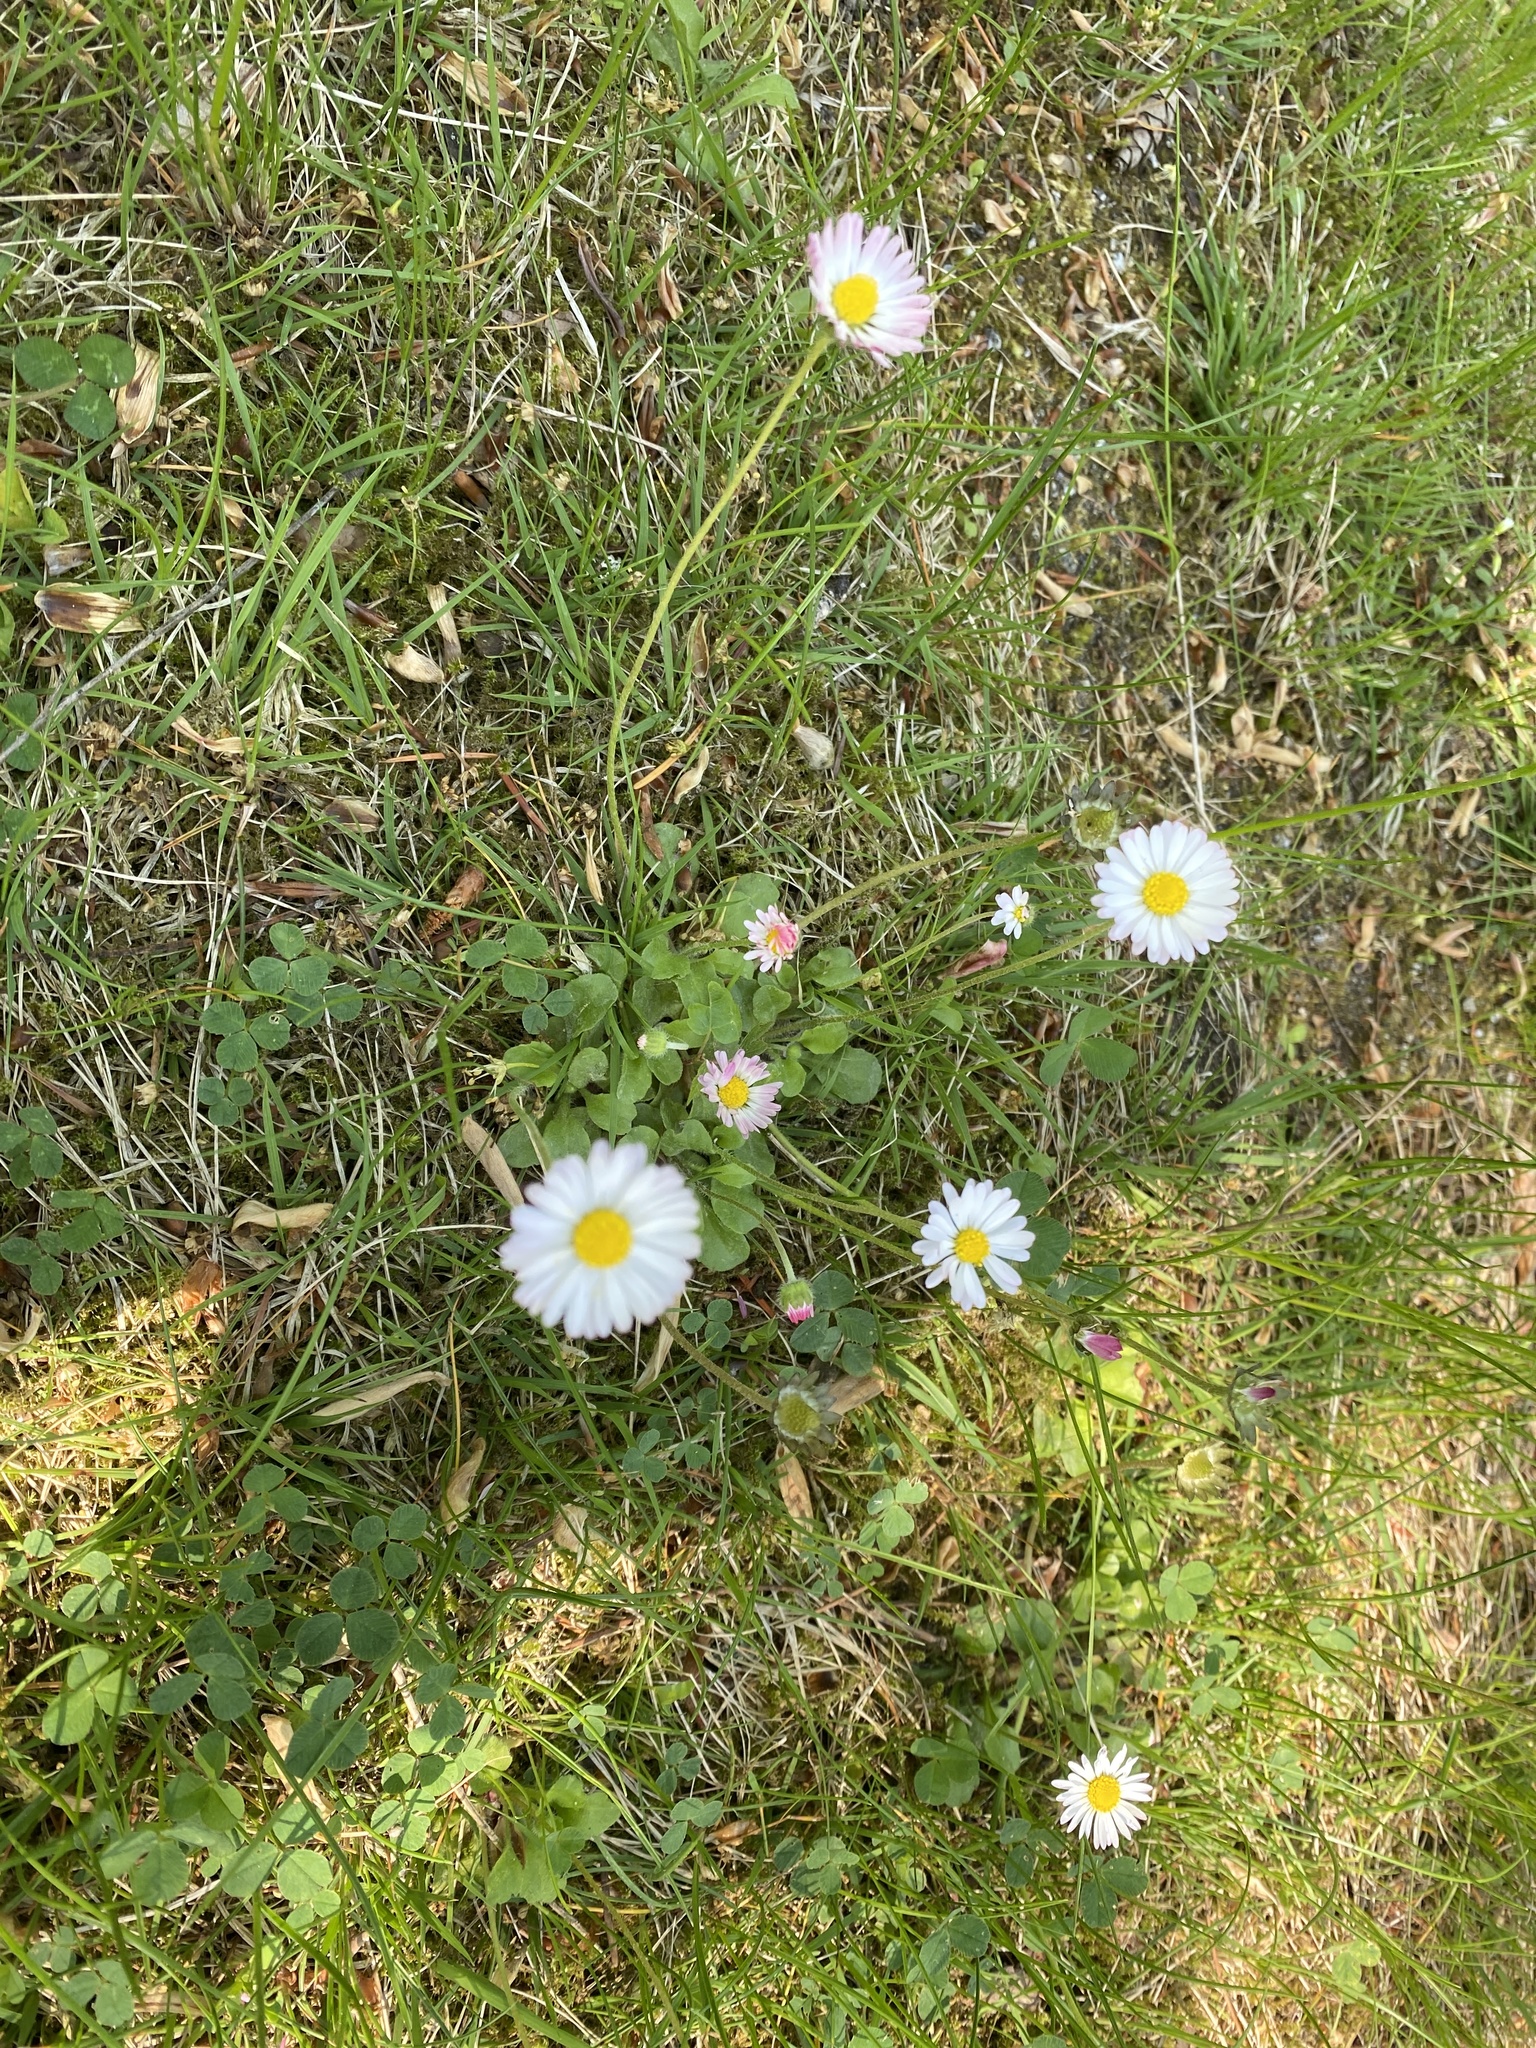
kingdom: Plantae
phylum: Tracheophyta
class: Magnoliopsida
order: Asterales
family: Asteraceae
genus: Bellis
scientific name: Bellis perennis
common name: Lawndaisy
